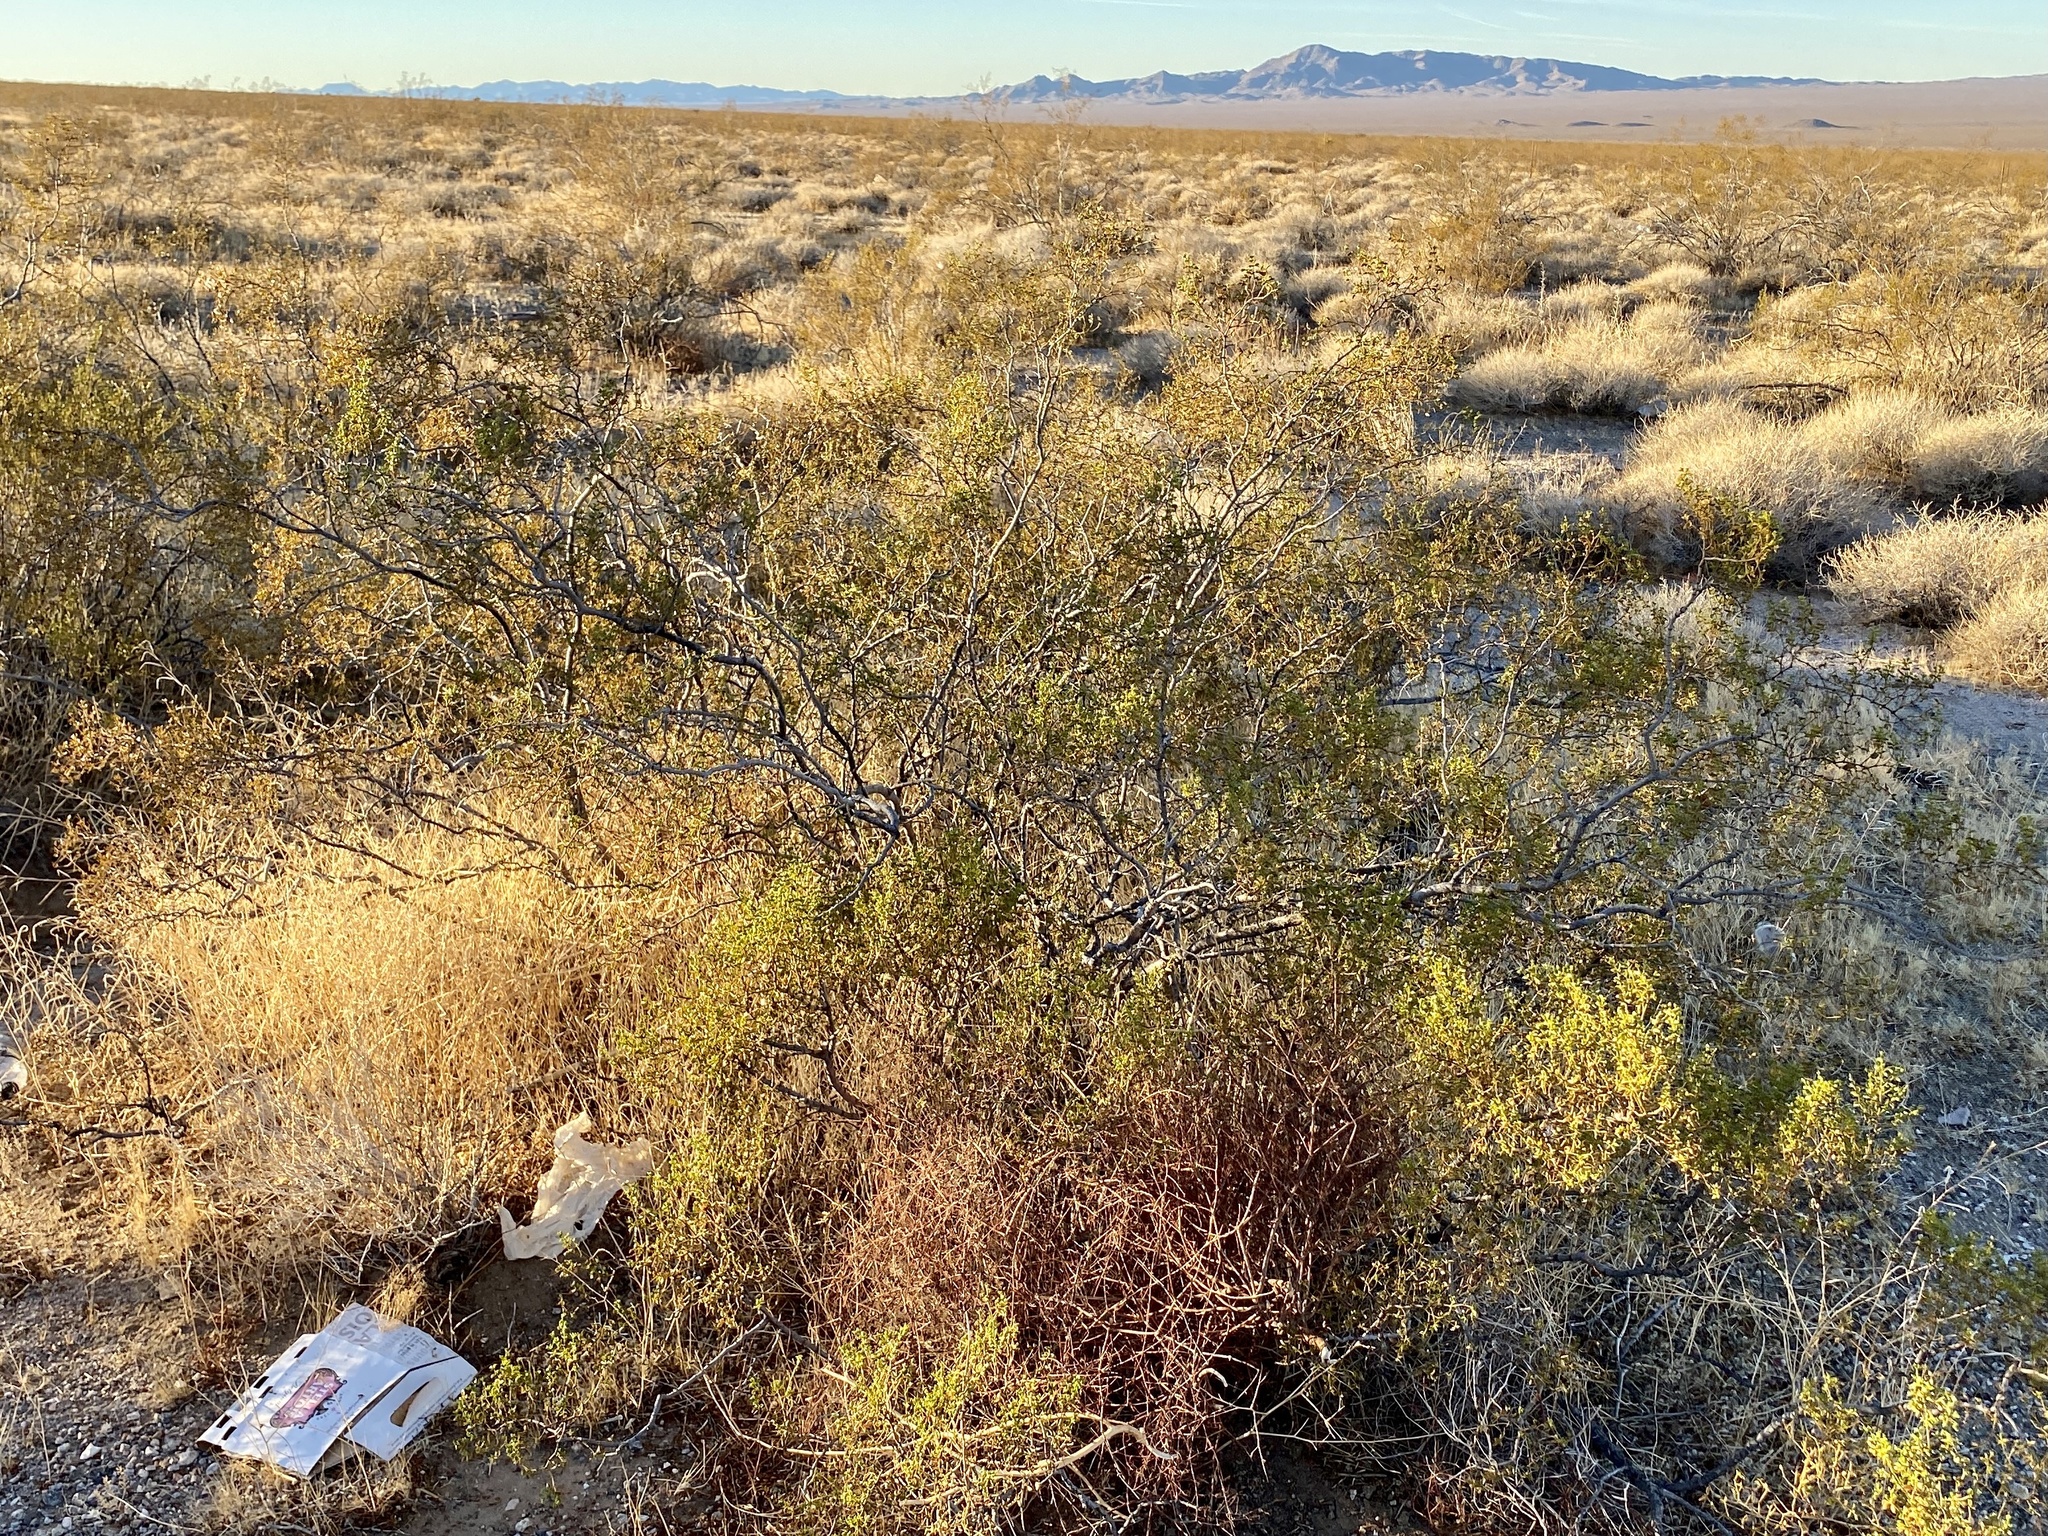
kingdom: Plantae
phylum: Tracheophyta
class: Magnoliopsida
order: Zygophyllales
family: Zygophyllaceae
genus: Larrea
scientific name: Larrea tridentata
